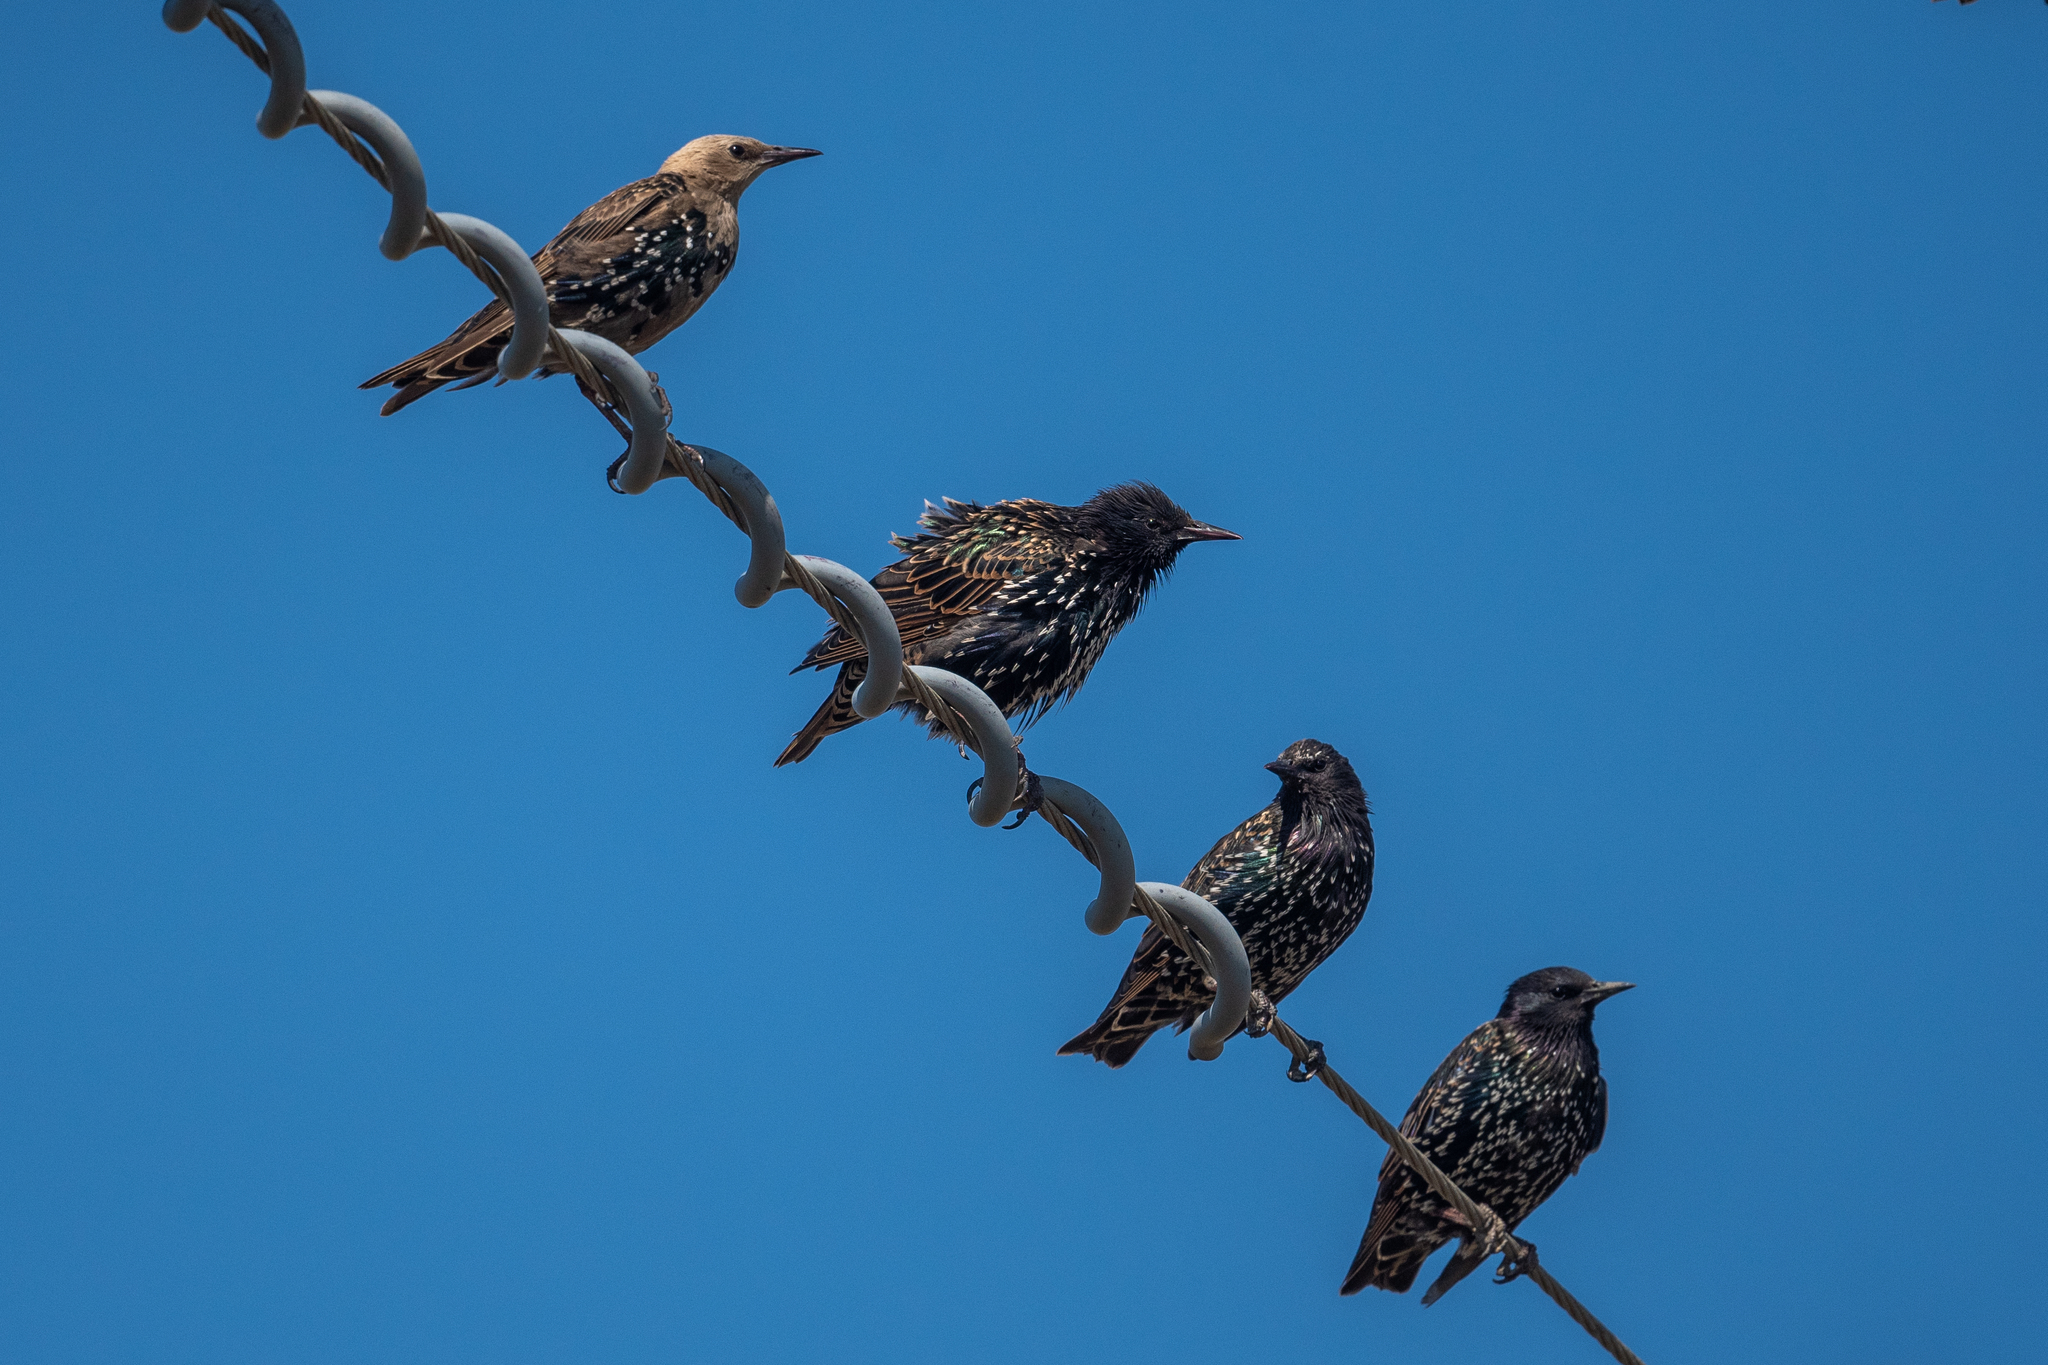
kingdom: Animalia
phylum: Chordata
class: Aves
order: Passeriformes
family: Sturnidae
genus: Sturnus
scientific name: Sturnus vulgaris
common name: Common starling
